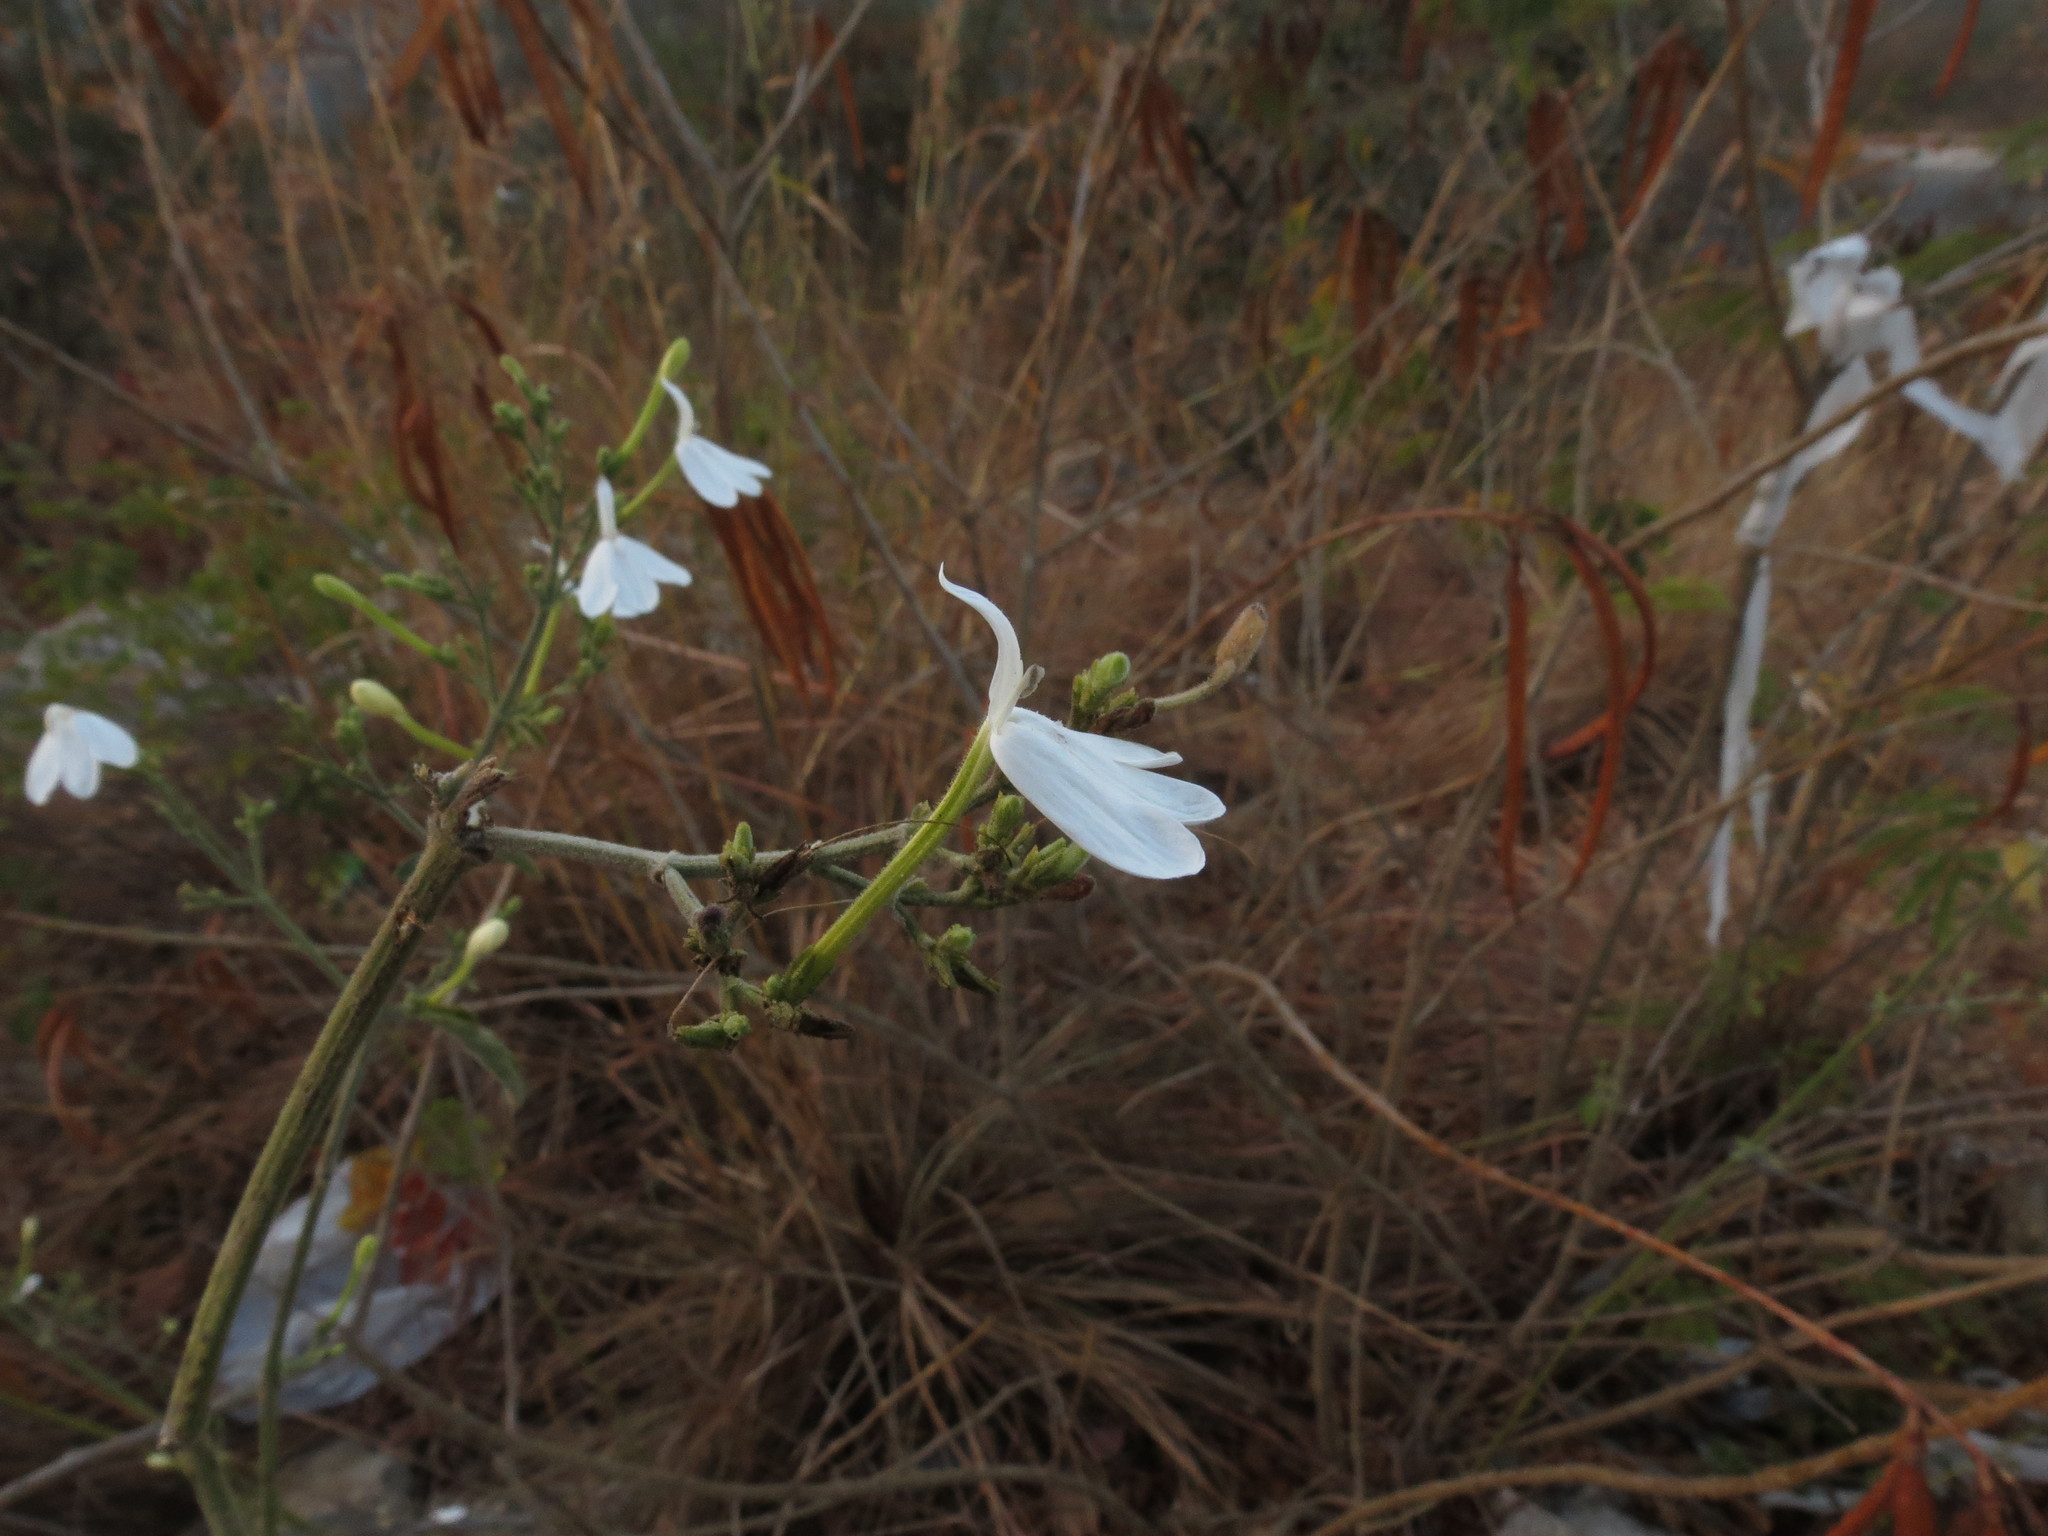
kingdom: Plantae
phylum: Tracheophyta
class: Magnoliopsida
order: Lamiales
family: Acanthaceae
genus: Rhinacanthus
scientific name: Rhinacanthus nasutus
